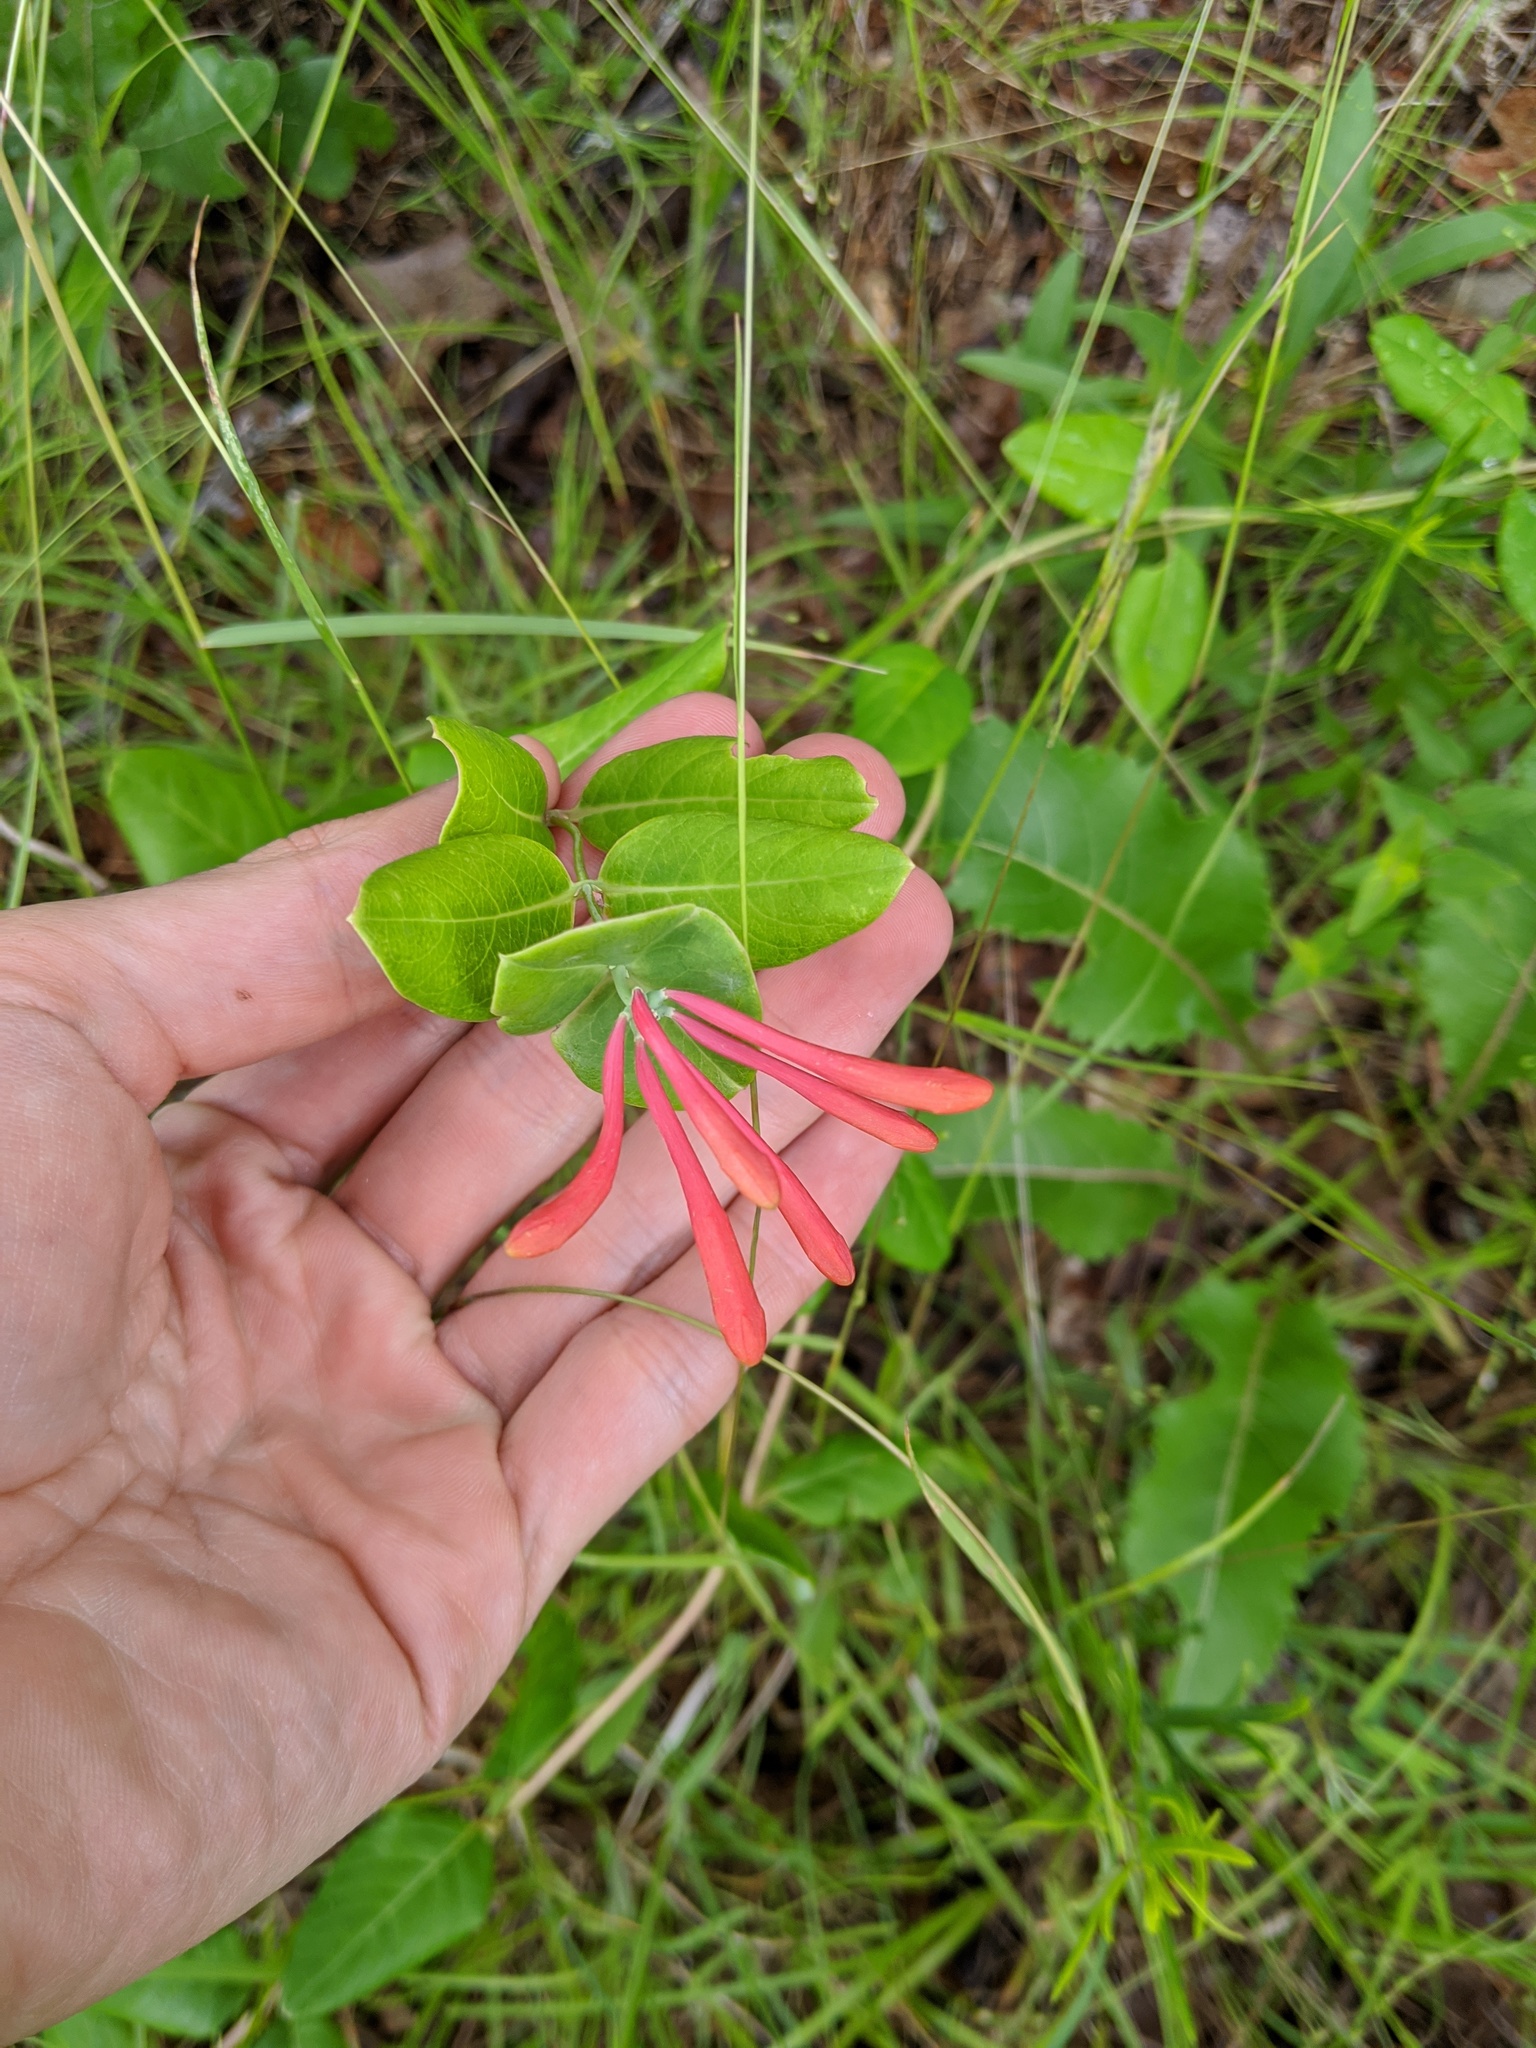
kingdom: Plantae
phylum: Tracheophyta
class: Magnoliopsida
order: Dipsacales
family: Caprifoliaceae
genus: Lonicera
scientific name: Lonicera sempervirens
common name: Coral honeysuckle
